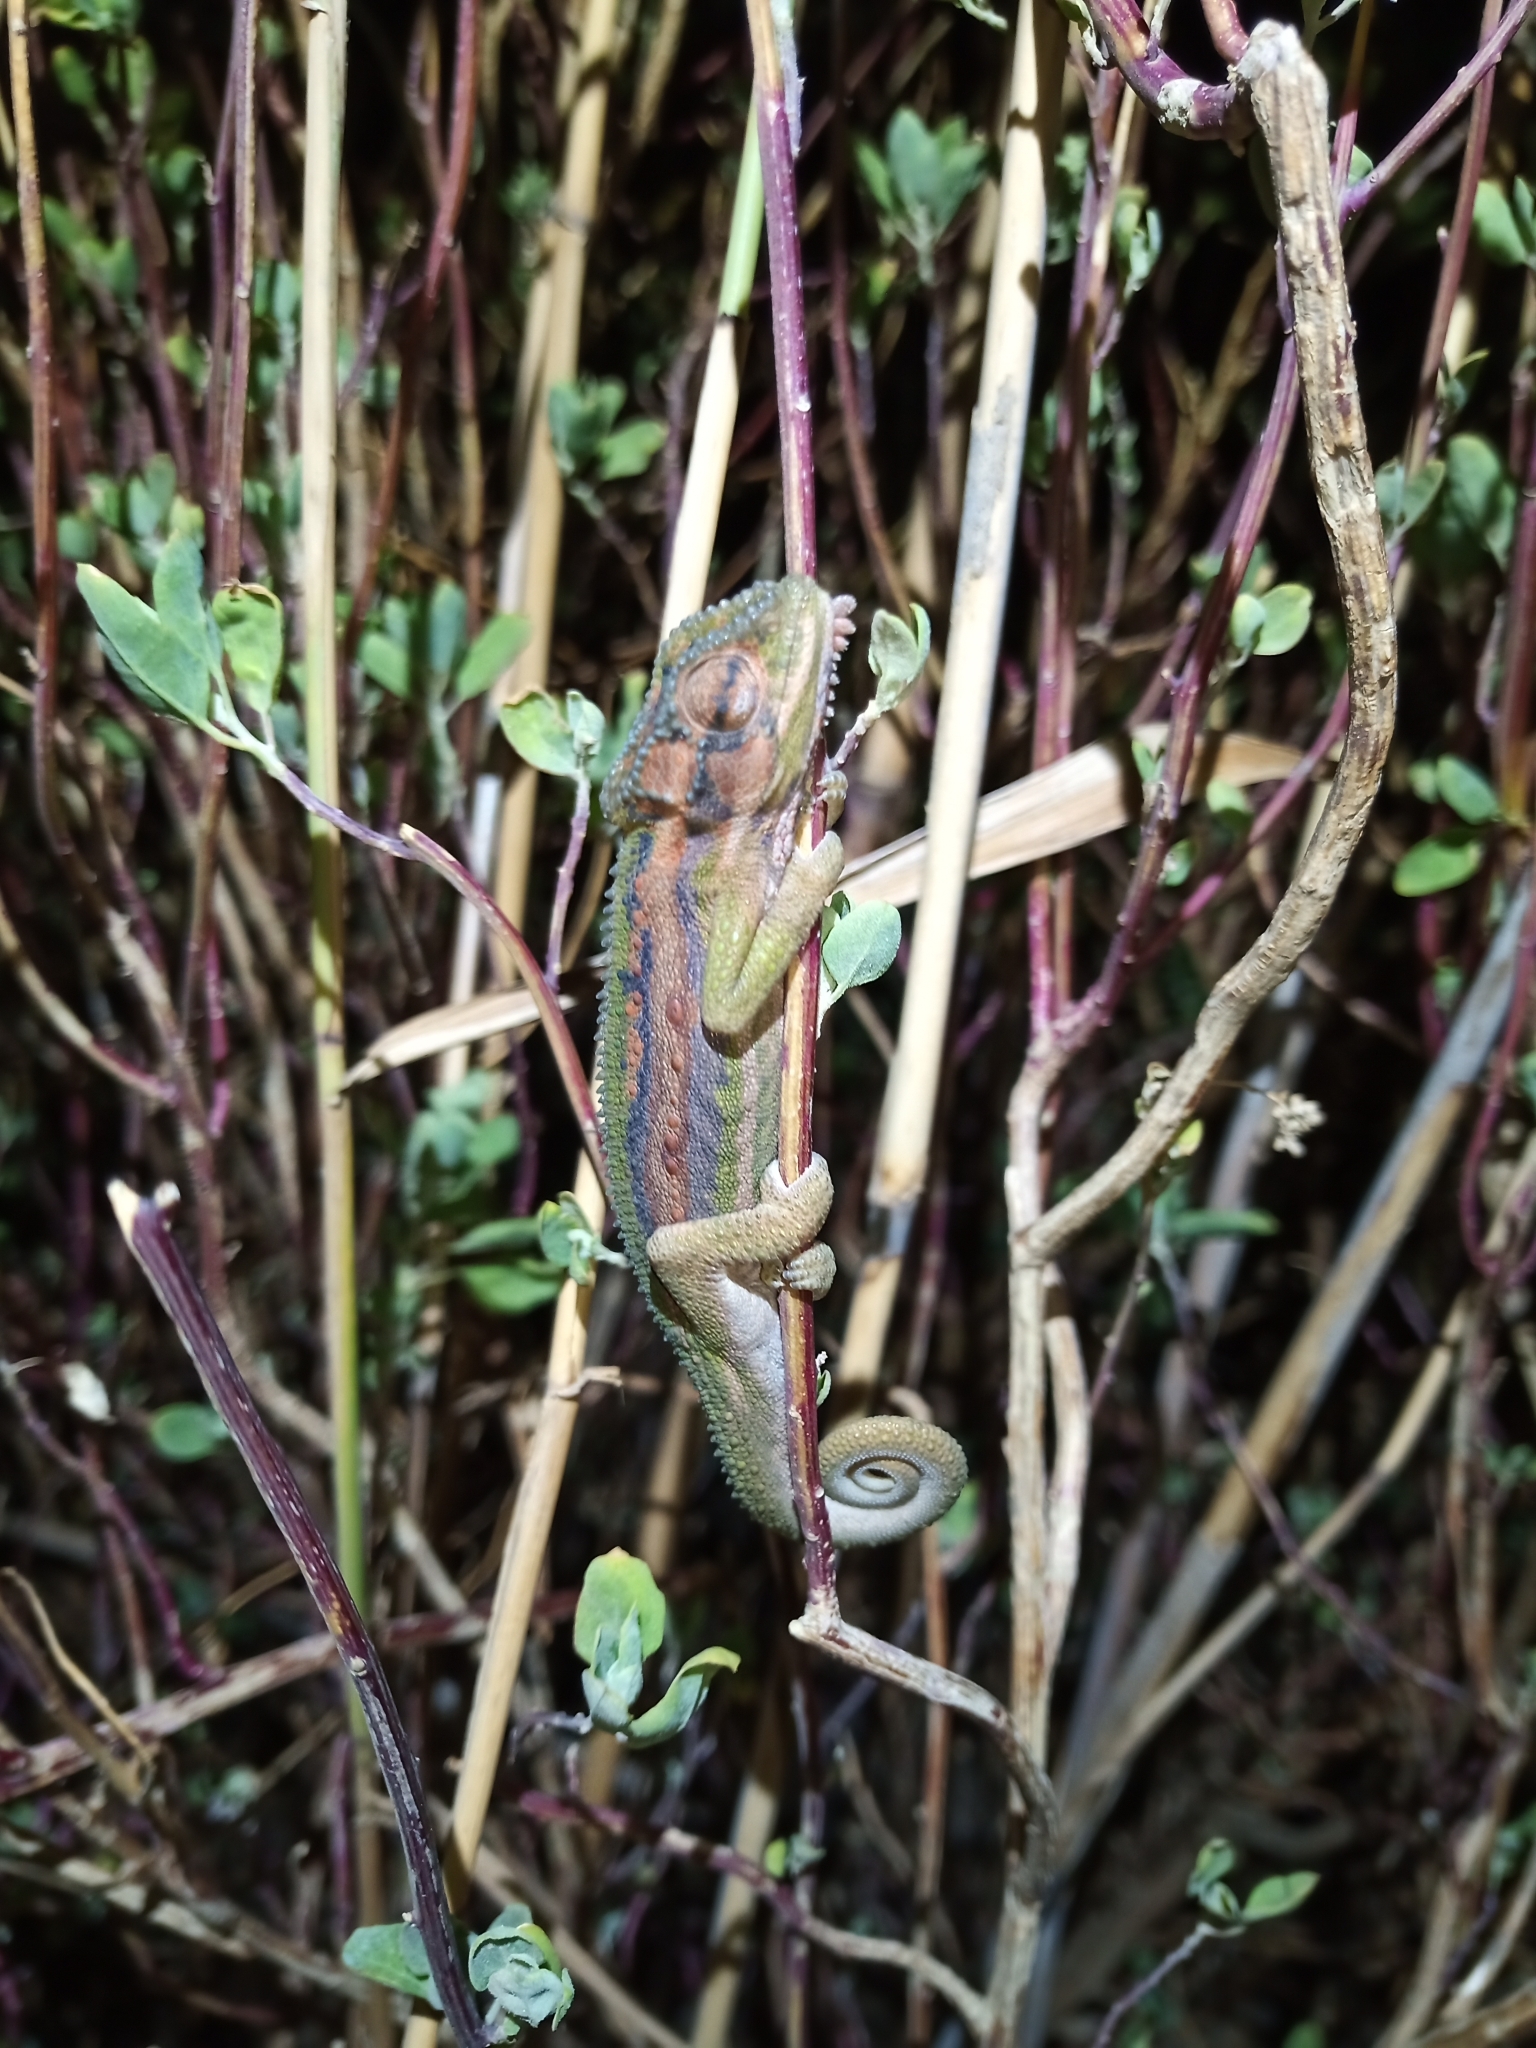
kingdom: Animalia
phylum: Chordata
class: Squamata
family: Chamaeleonidae
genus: Bradypodion
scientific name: Bradypodion pumilum
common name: Cape dwarf chameleon
